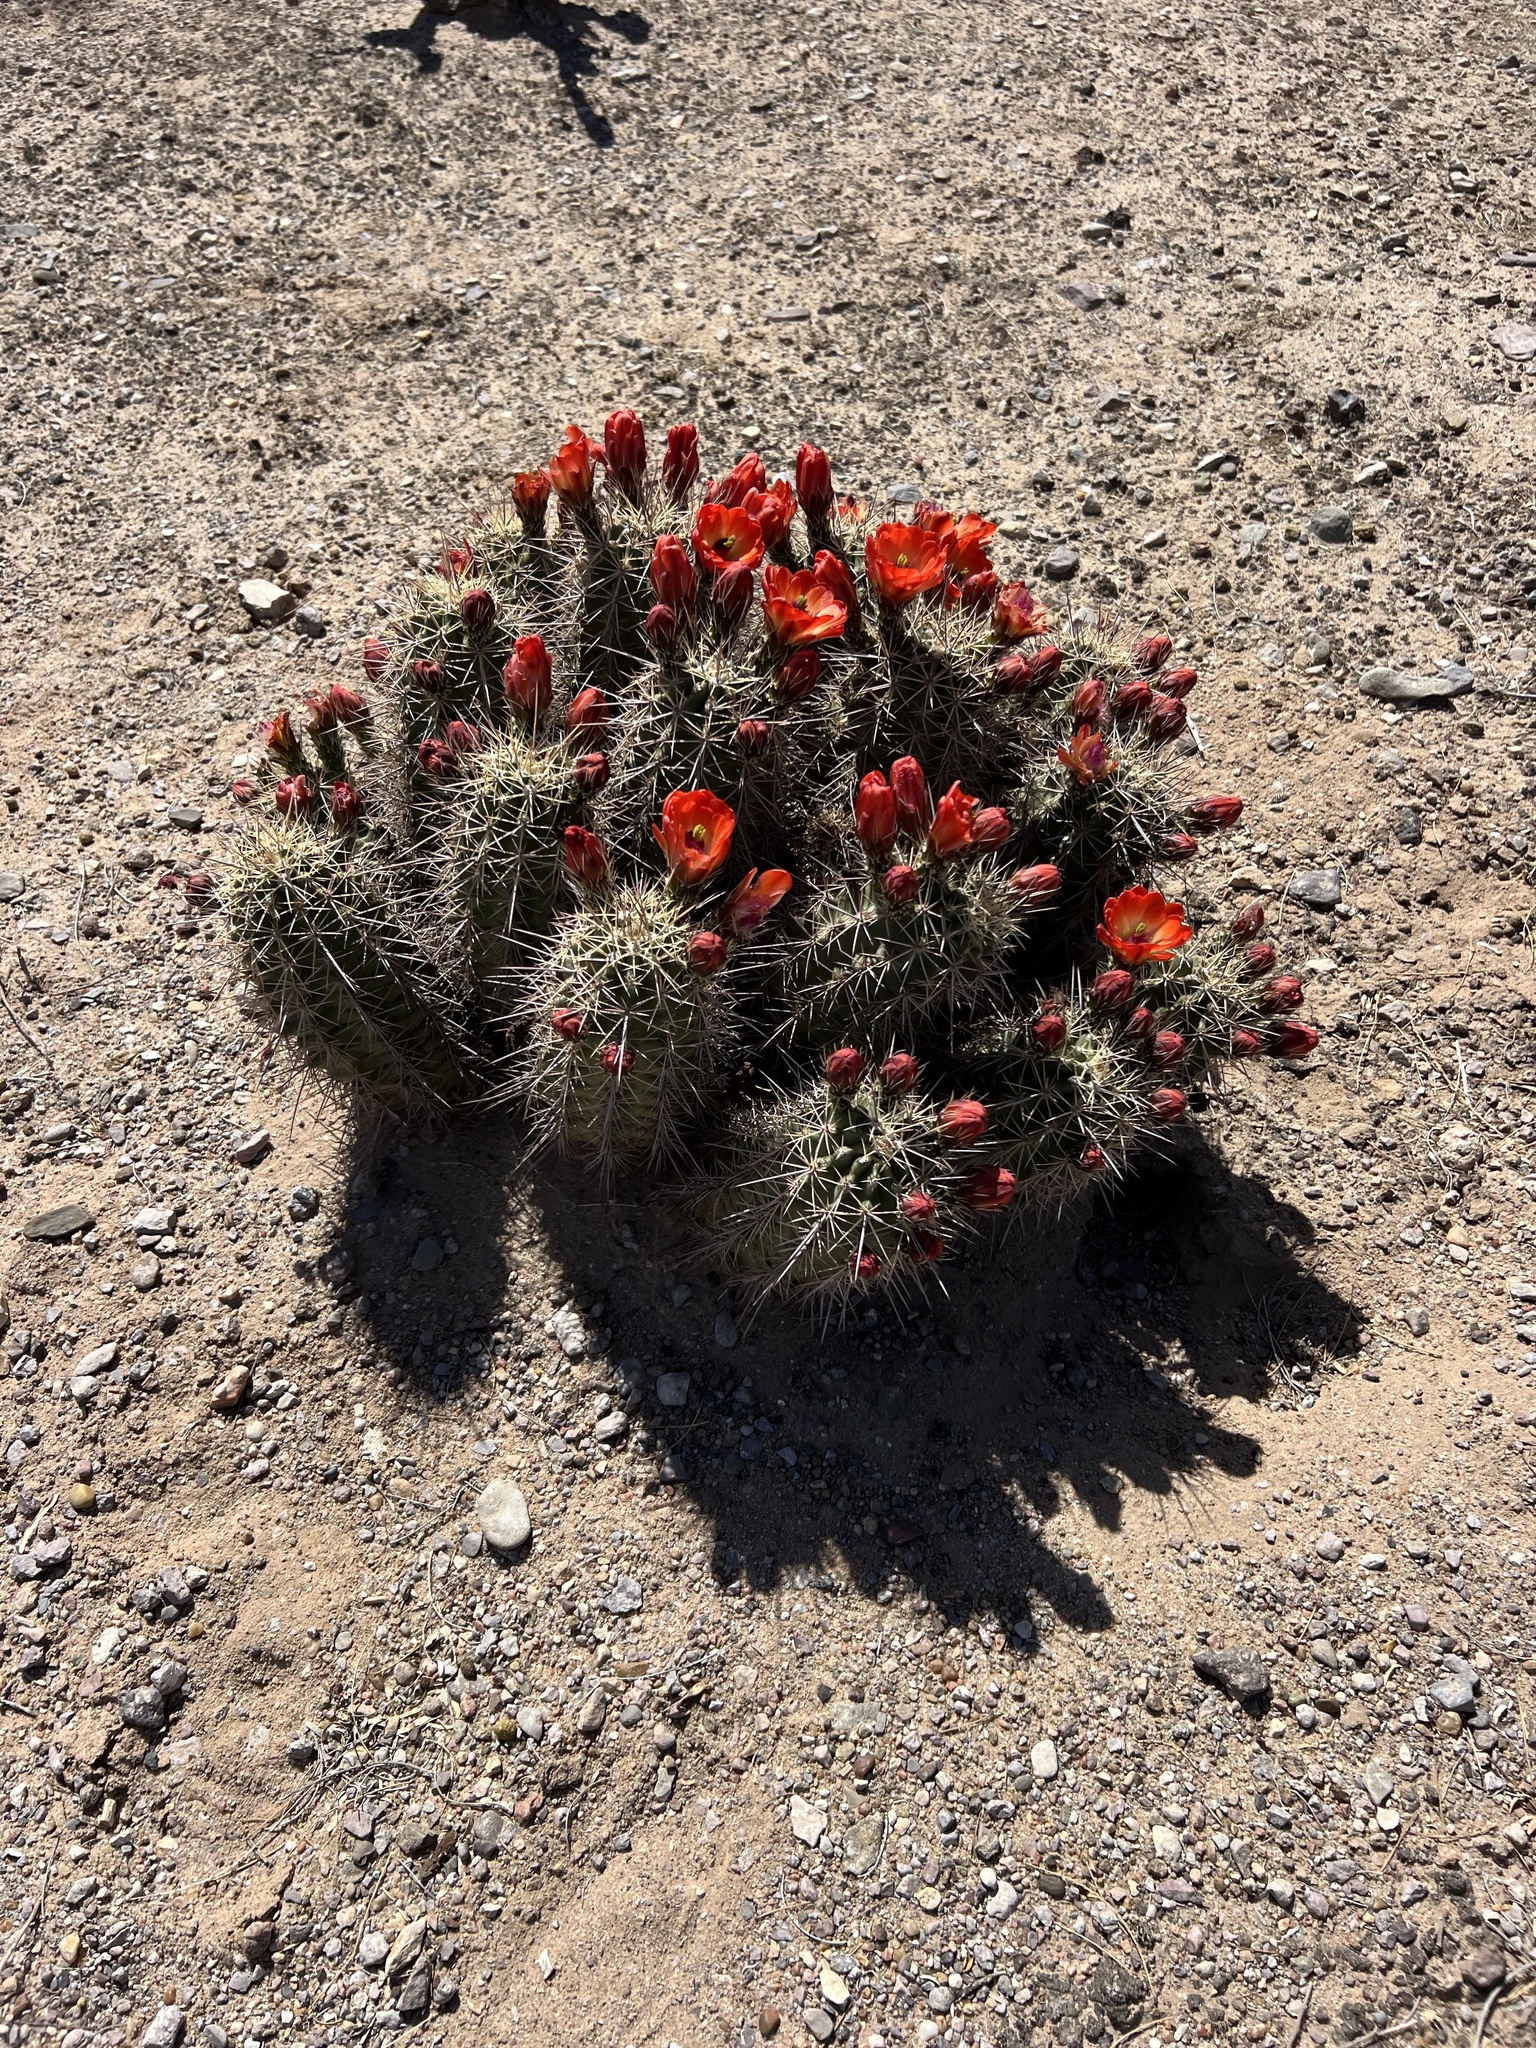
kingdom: Plantae
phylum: Tracheophyta
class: Magnoliopsida
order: Caryophyllales
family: Cactaceae
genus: Echinocereus
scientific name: Echinocereus coccineus
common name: Scarlet hedgehog cactus
